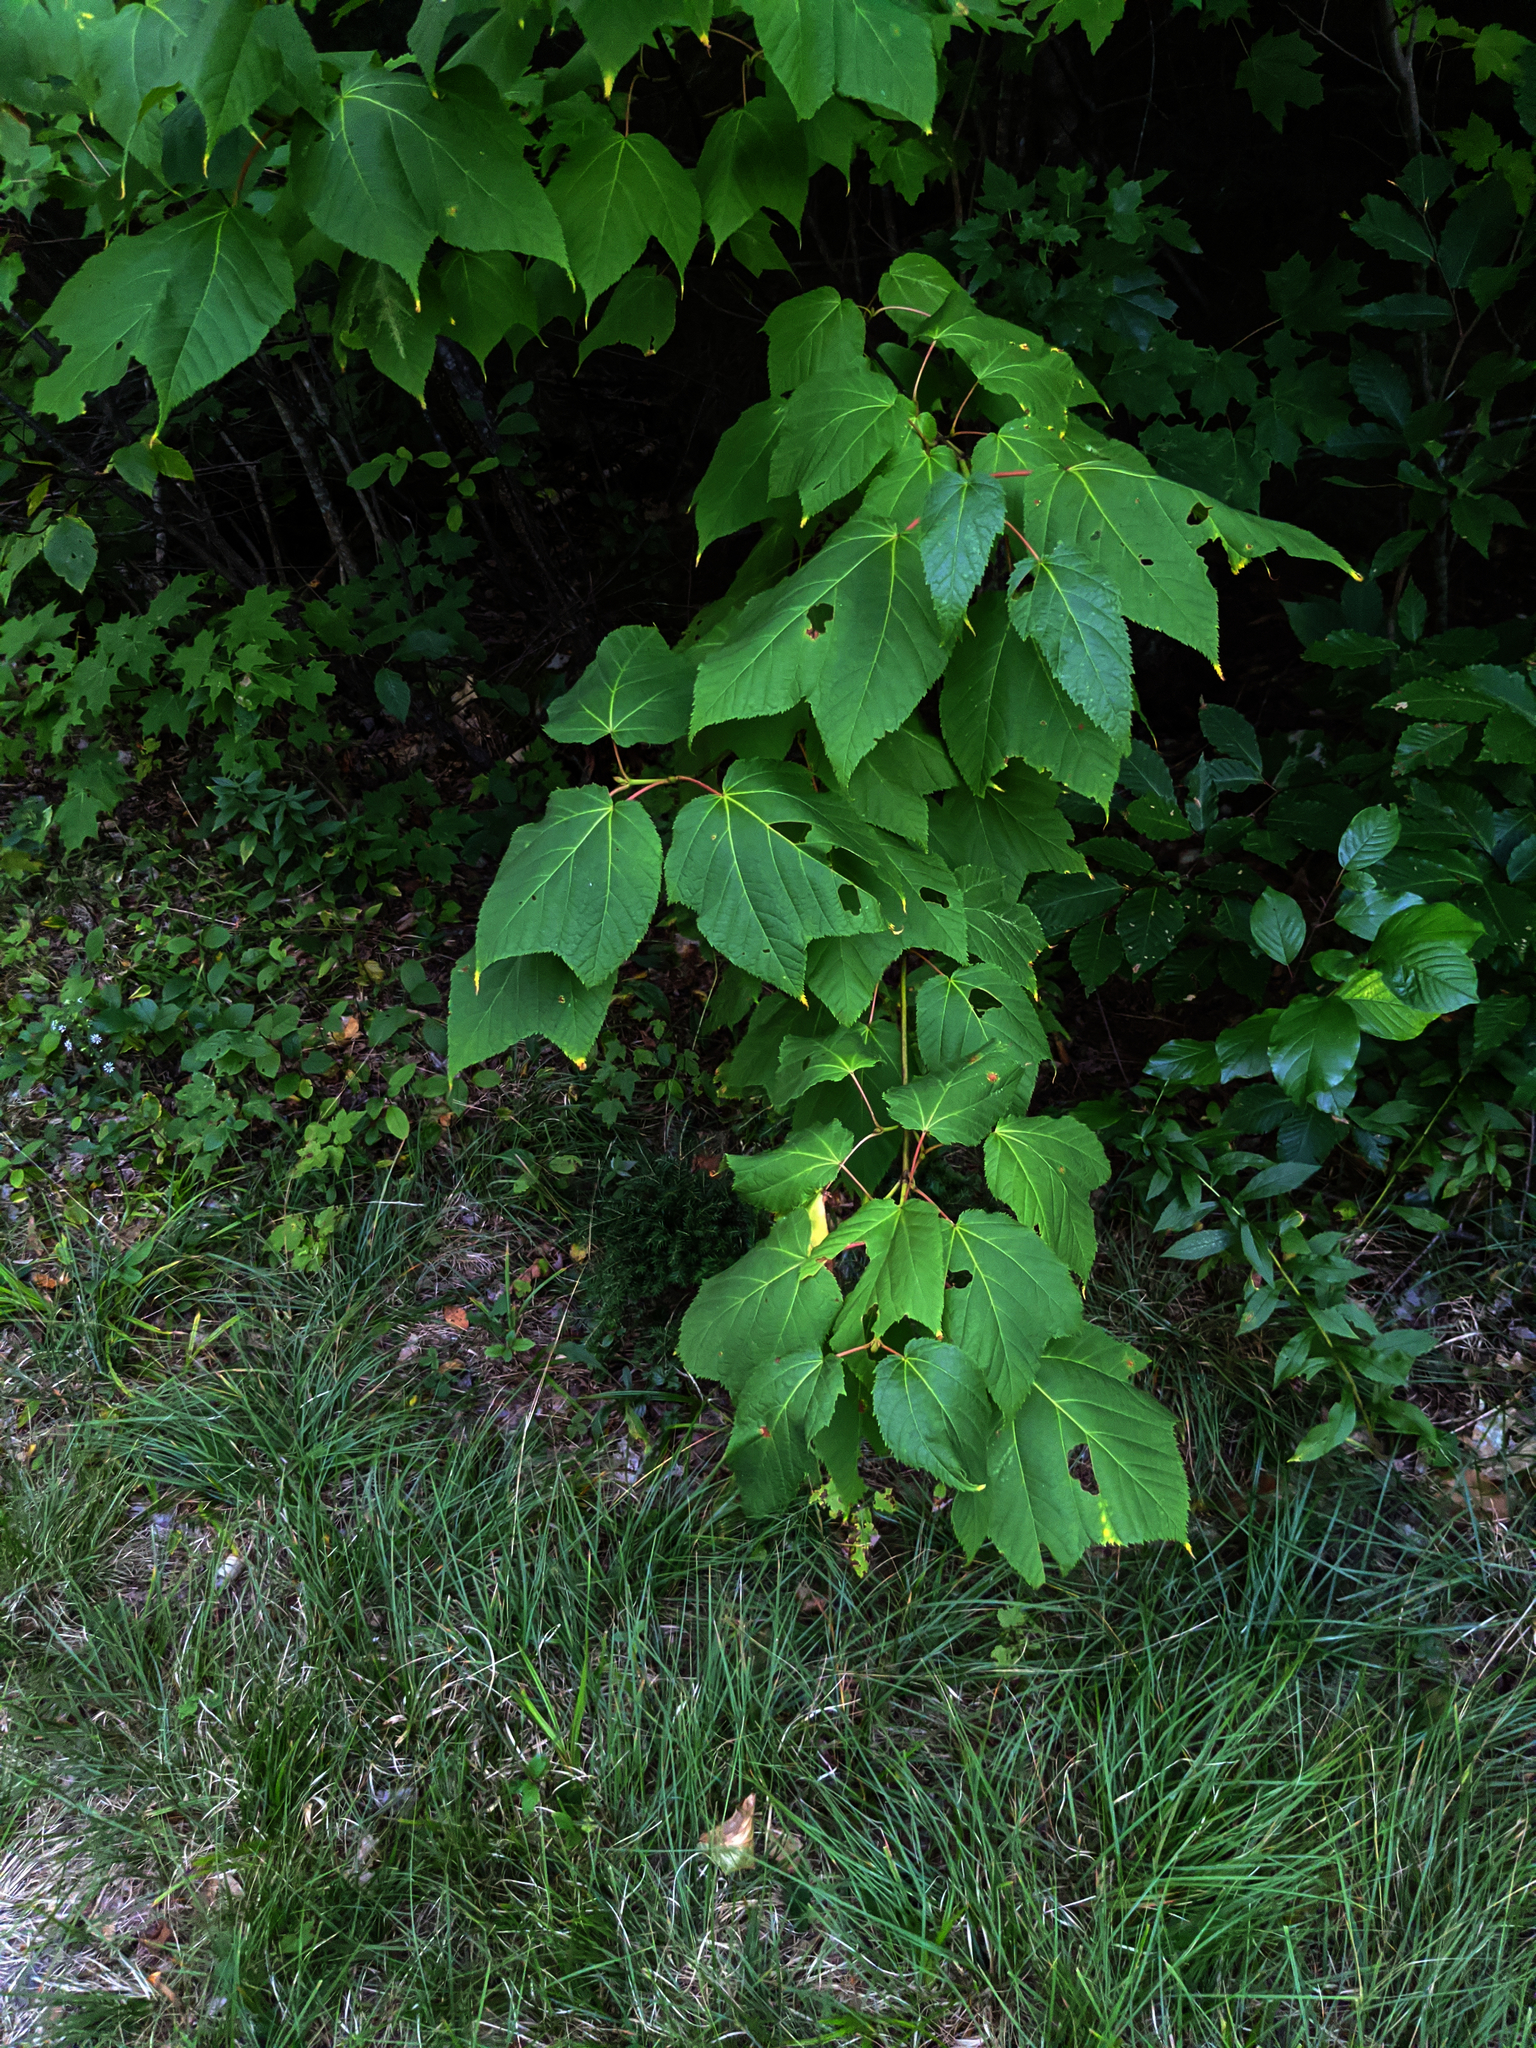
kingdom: Plantae
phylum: Tracheophyta
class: Magnoliopsida
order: Sapindales
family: Sapindaceae
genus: Acer
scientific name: Acer pensylvanicum
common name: Moosewood
